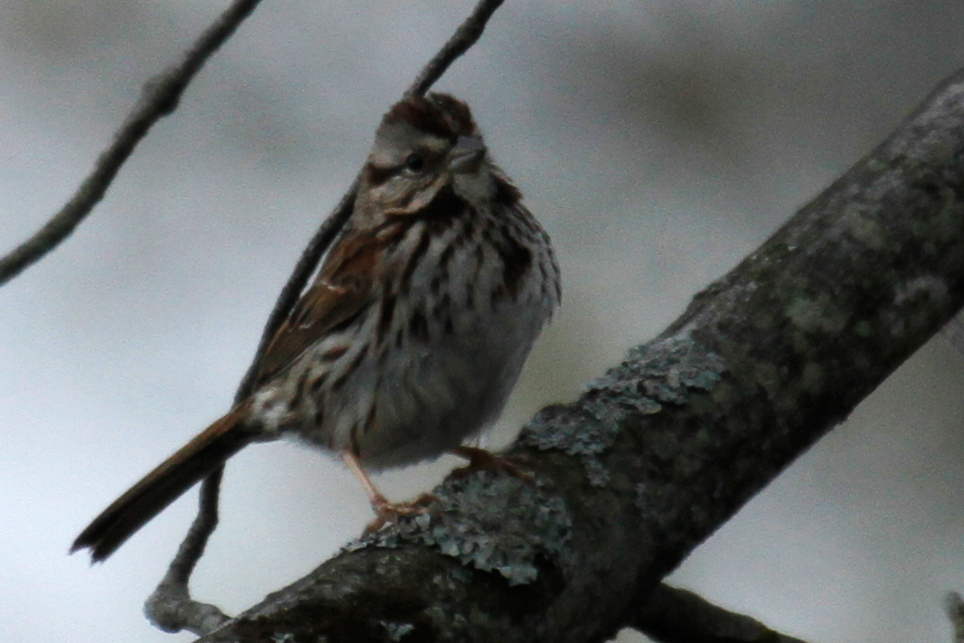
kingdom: Animalia
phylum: Chordata
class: Aves
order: Passeriformes
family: Passerellidae
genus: Melospiza
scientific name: Melospiza melodia
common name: Song sparrow
